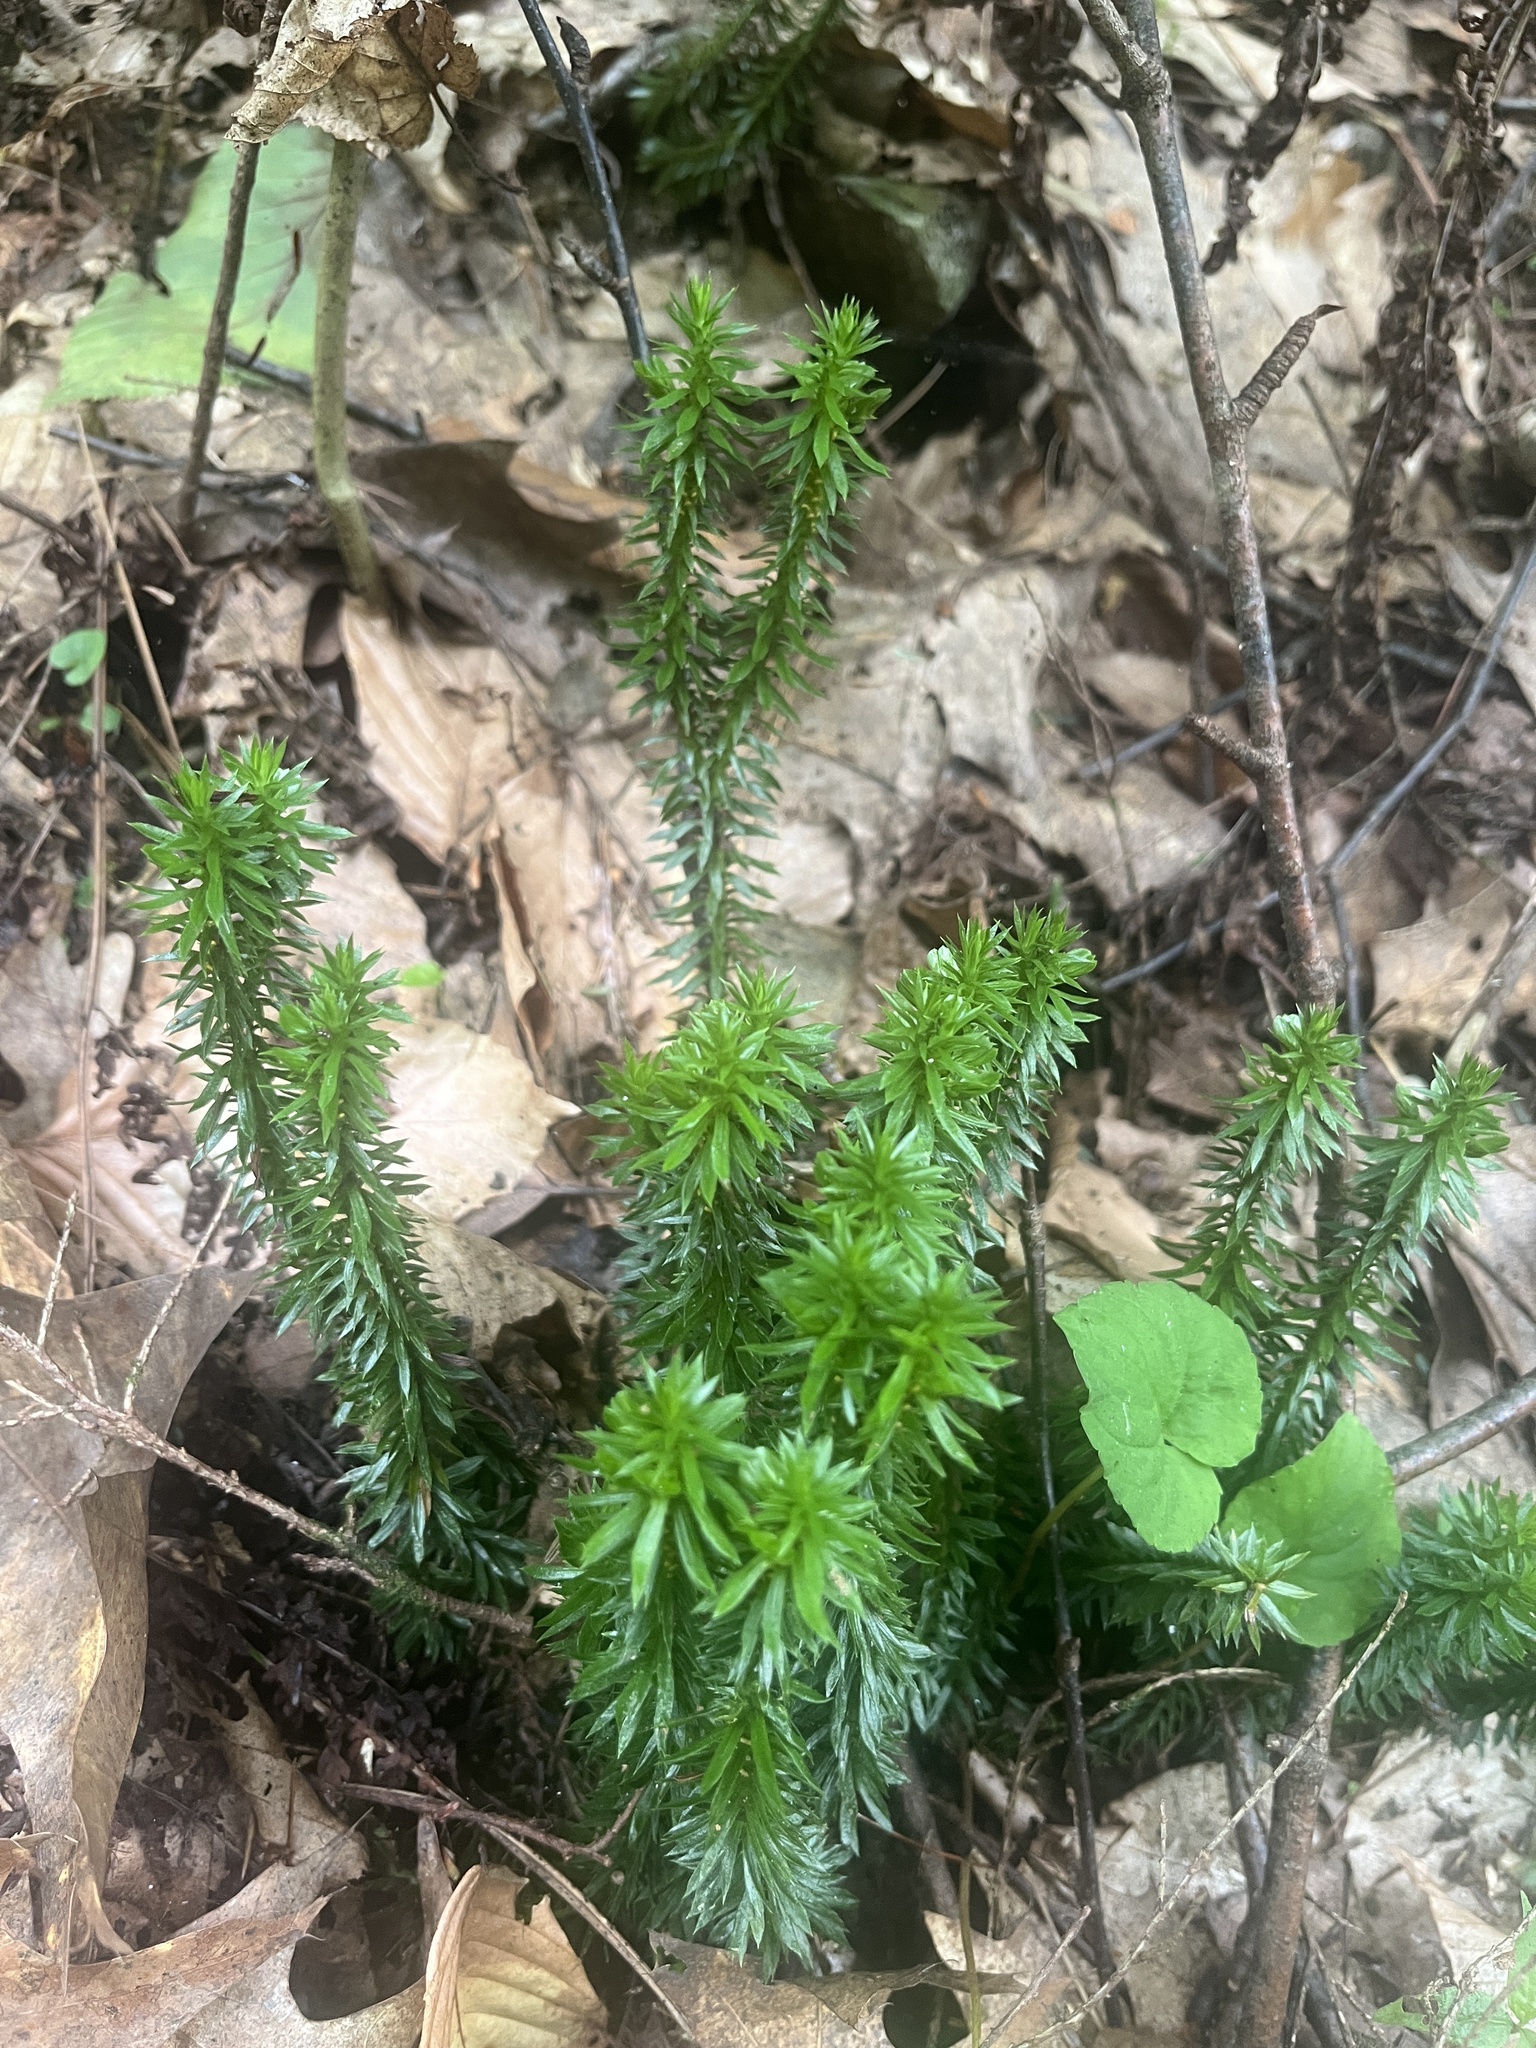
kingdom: Plantae
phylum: Tracheophyta
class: Lycopodiopsida
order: Lycopodiales
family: Lycopodiaceae
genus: Huperzia
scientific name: Huperzia lucidula
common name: Shining clubmoss
